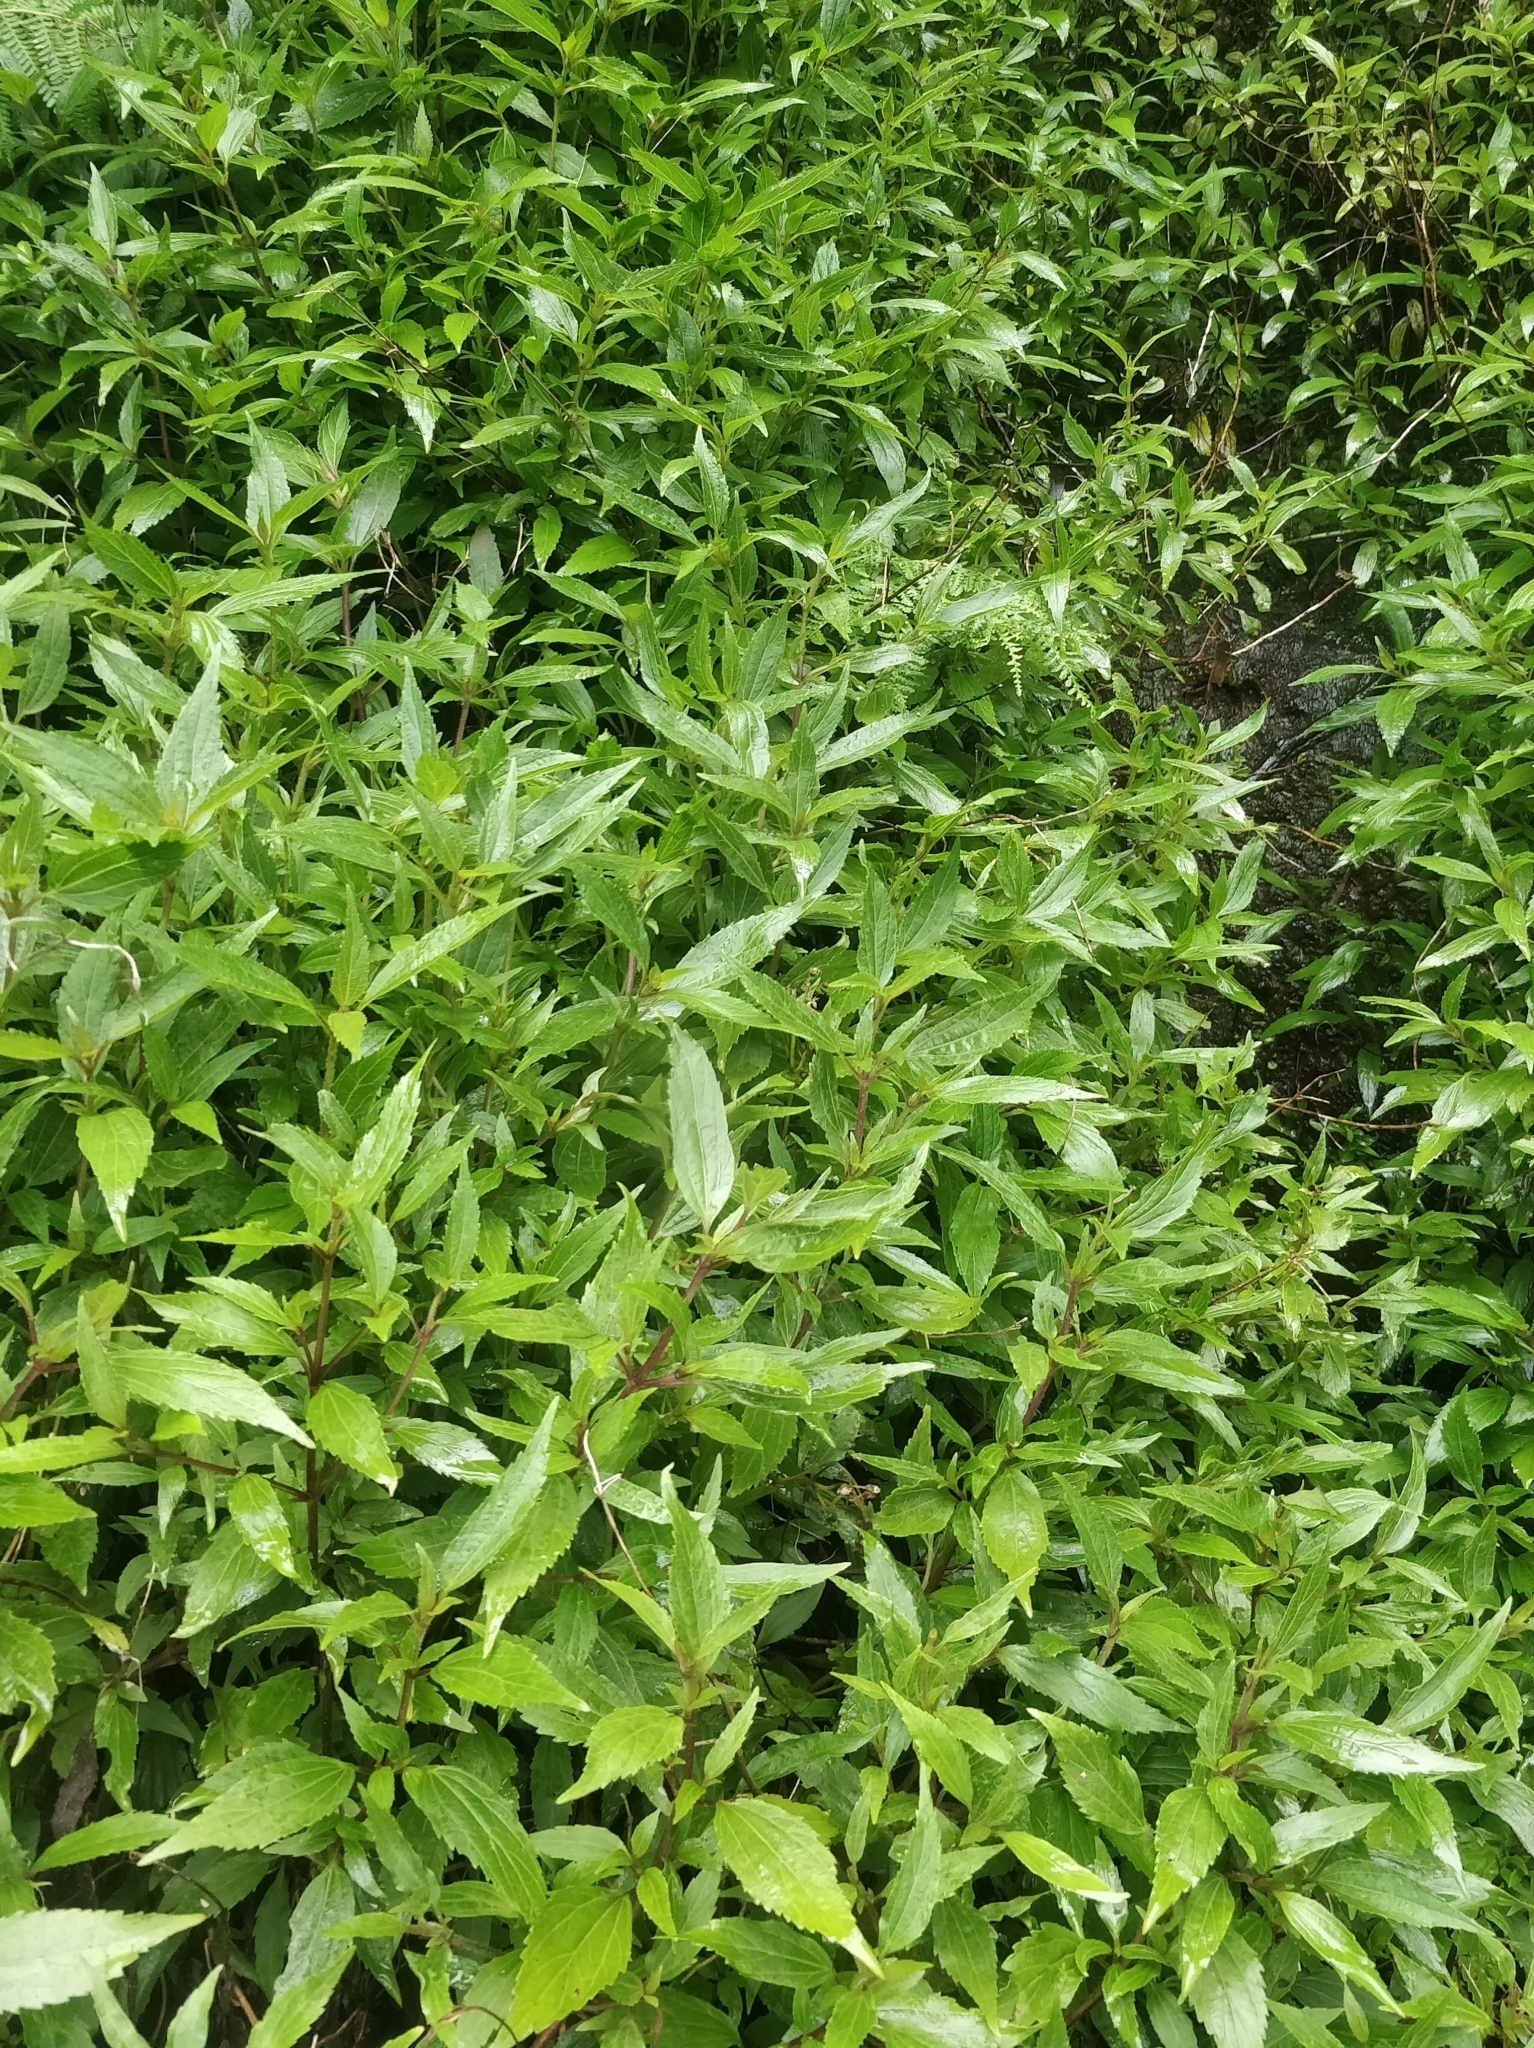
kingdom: Plantae
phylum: Tracheophyta
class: Magnoliopsida
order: Asterales
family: Asteraceae
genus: Ageratina
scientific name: Ageratina riparia
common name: Creeping croftonweed
